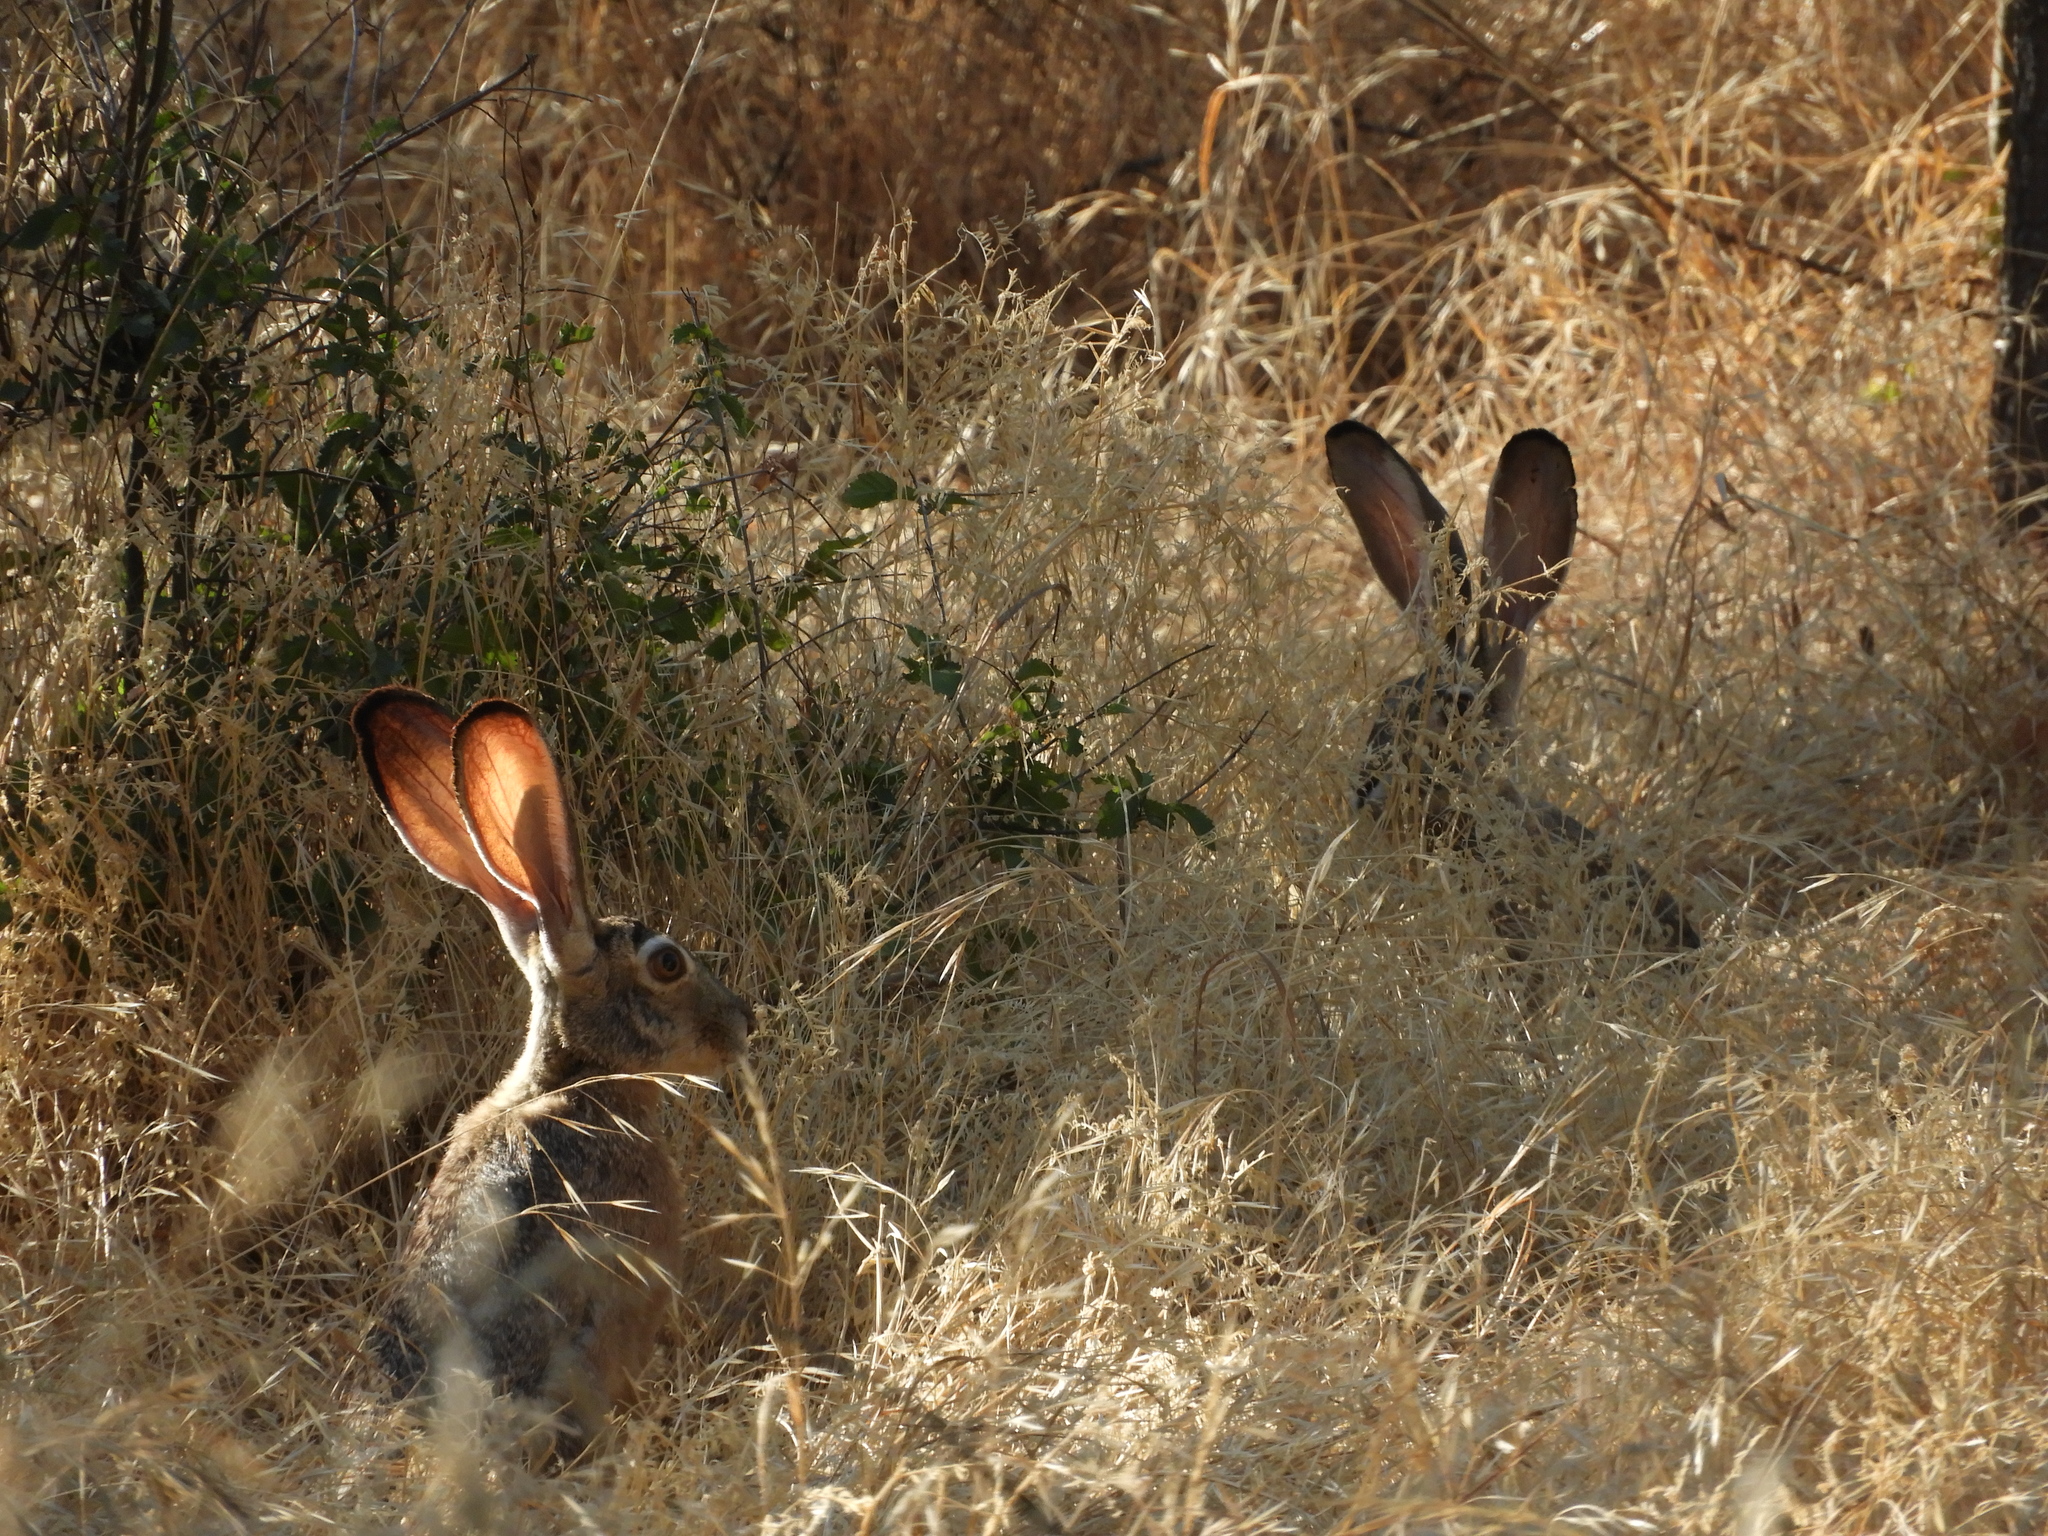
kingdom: Animalia
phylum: Chordata
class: Mammalia
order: Lagomorpha
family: Leporidae
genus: Lepus
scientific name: Lepus californicus
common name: Black-tailed jackrabbit
